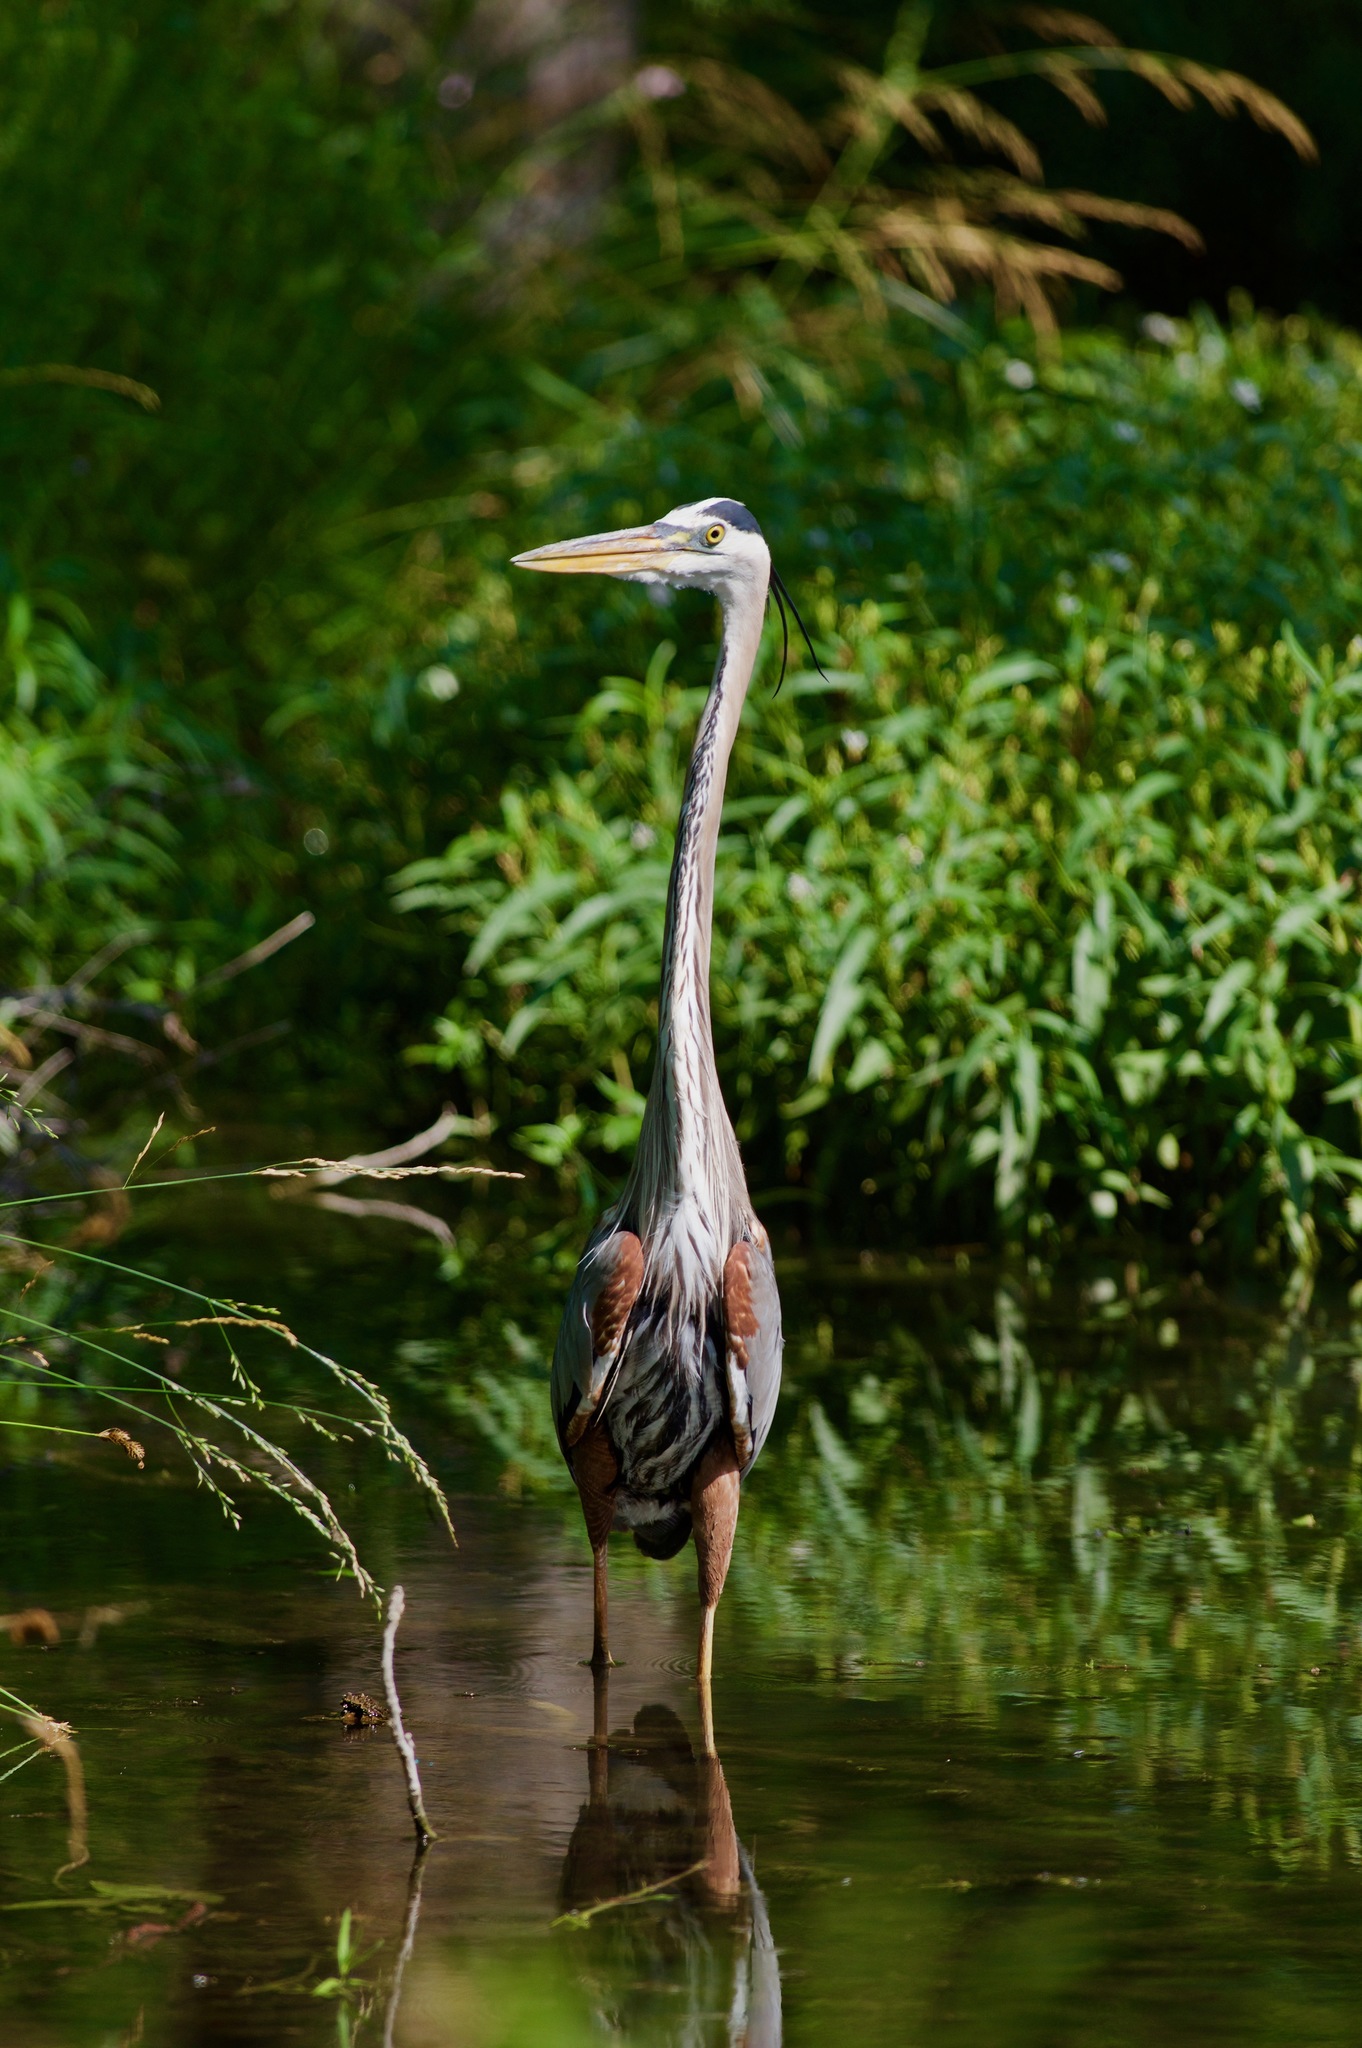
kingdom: Animalia
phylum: Chordata
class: Aves
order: Pelecaniformes
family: Ardeidae
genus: Ardea
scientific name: Ardea herodias
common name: Great blue heron
